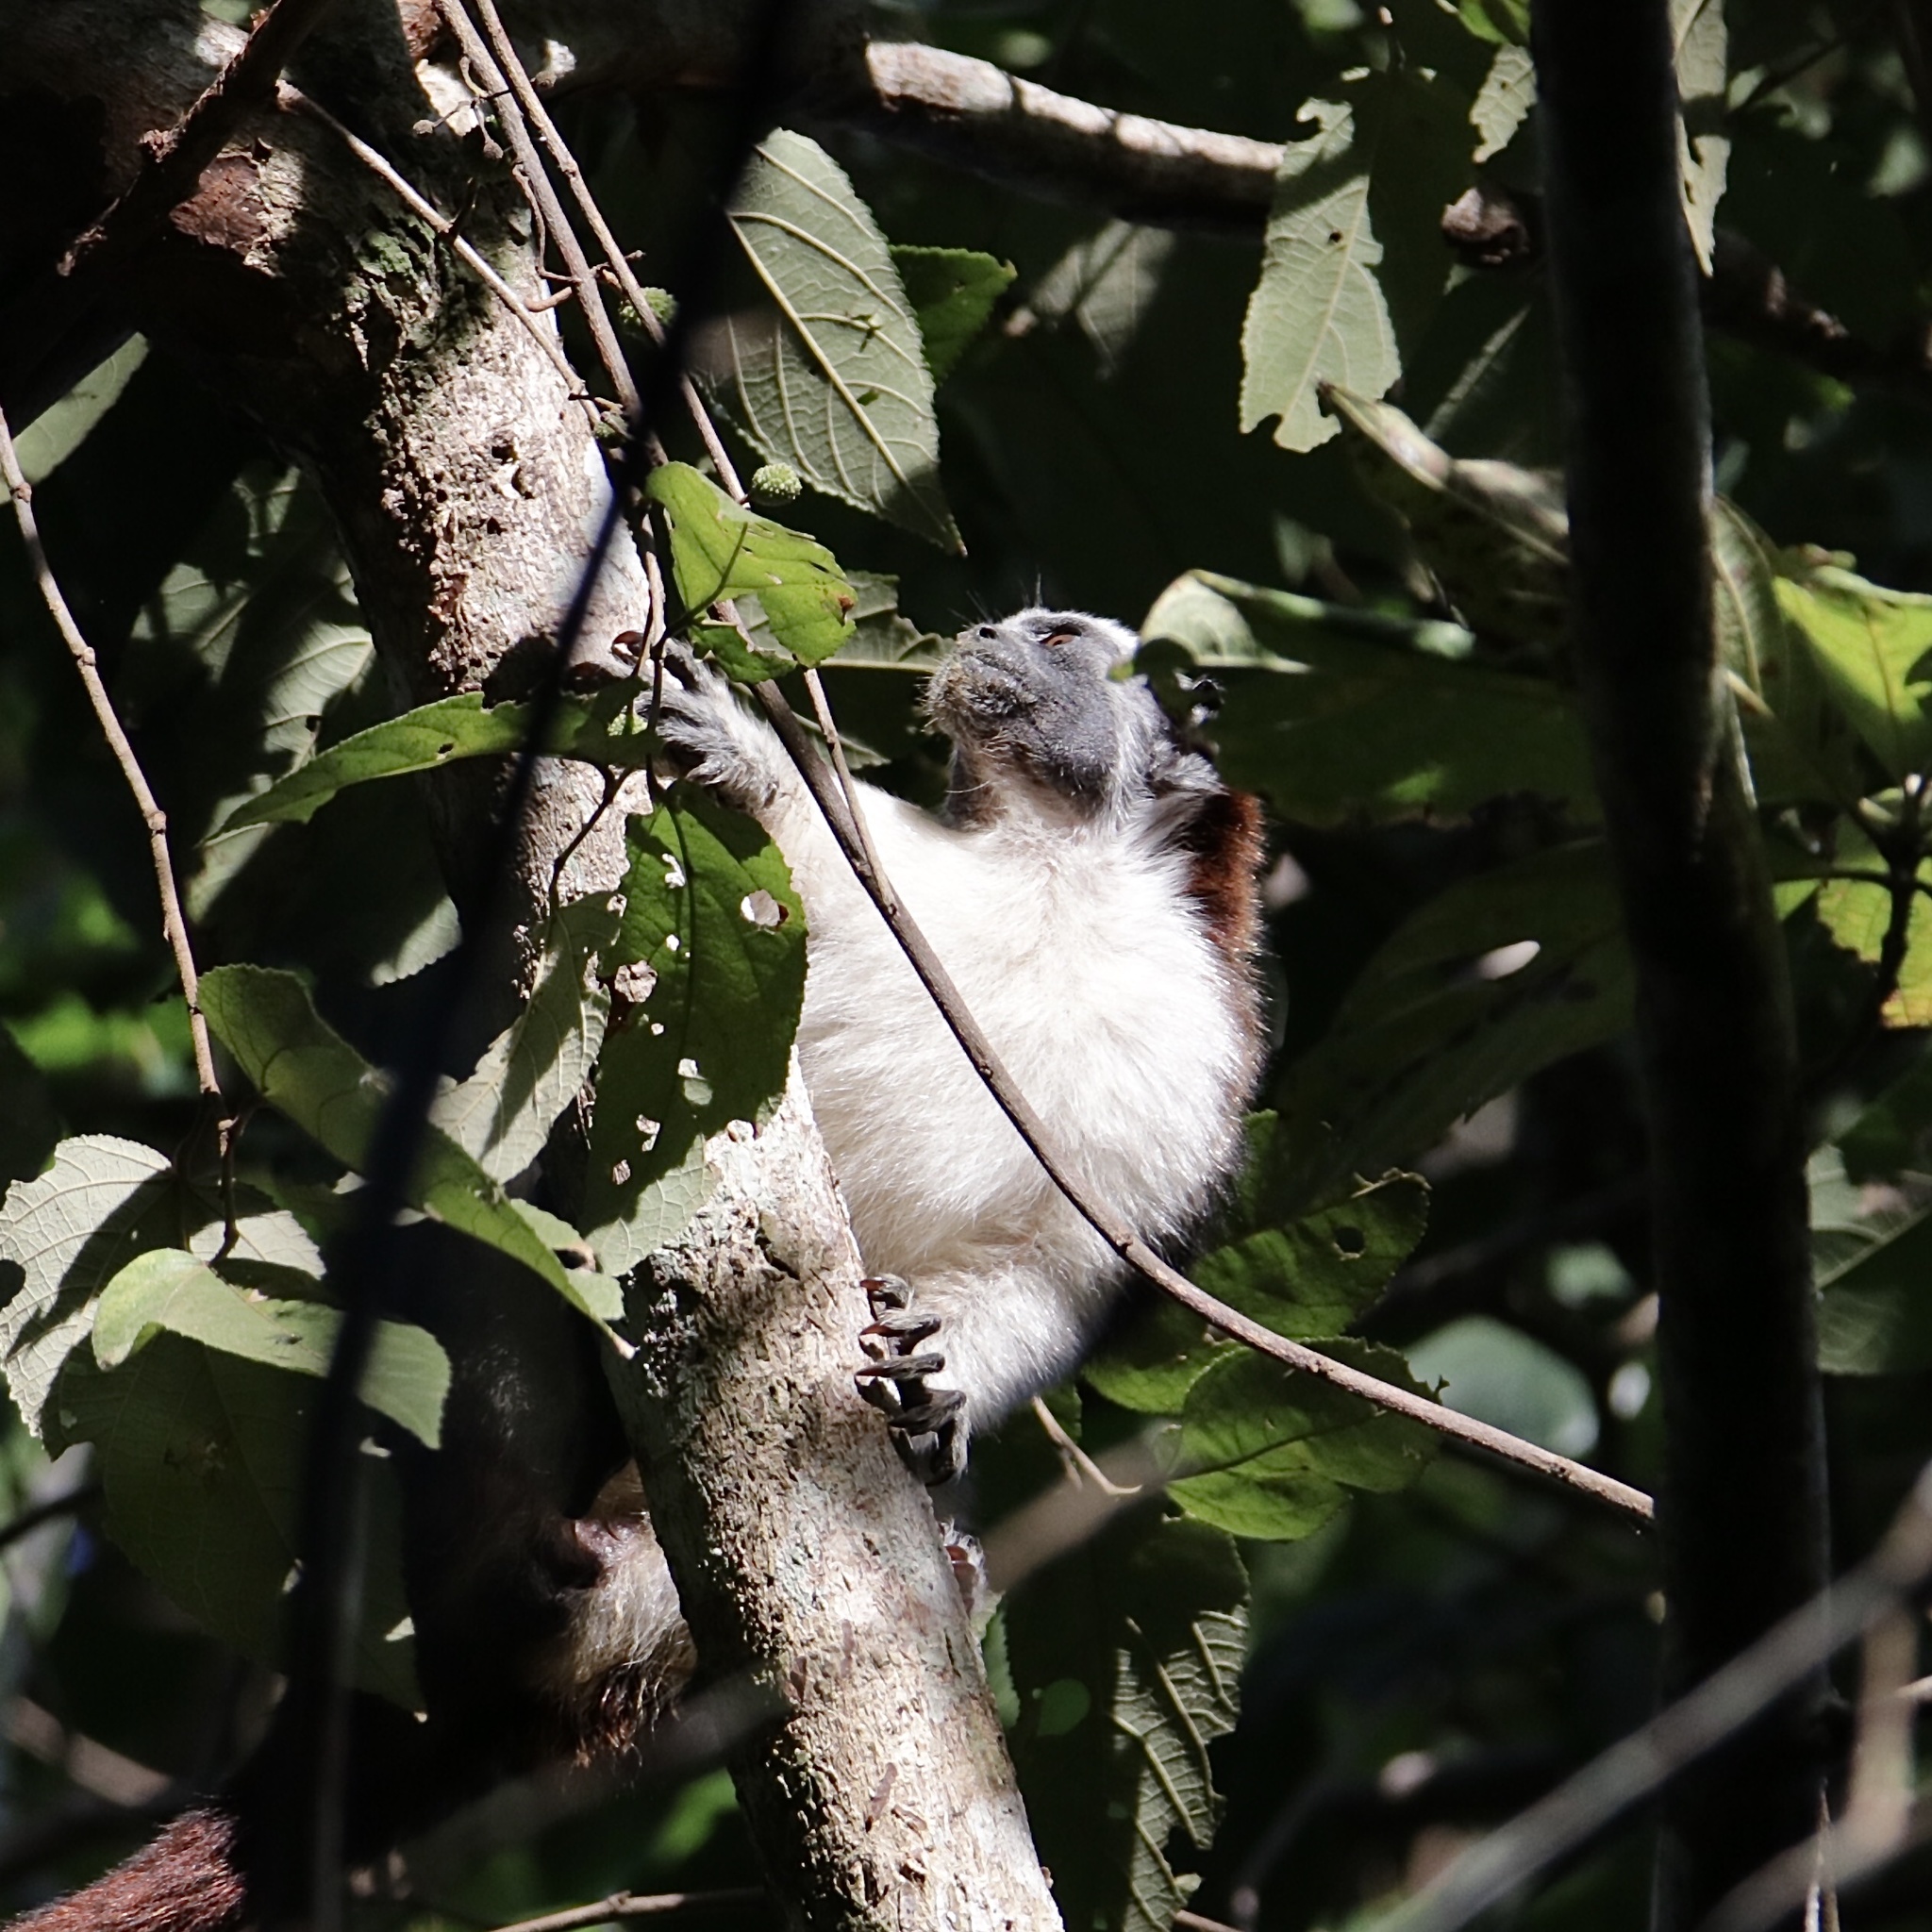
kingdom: Animalia
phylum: Chordata
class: Mammalia
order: Primates
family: Callitrichidae
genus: Saguinus
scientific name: Saguinus geoffroyi
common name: Geoffroy s tamarin
